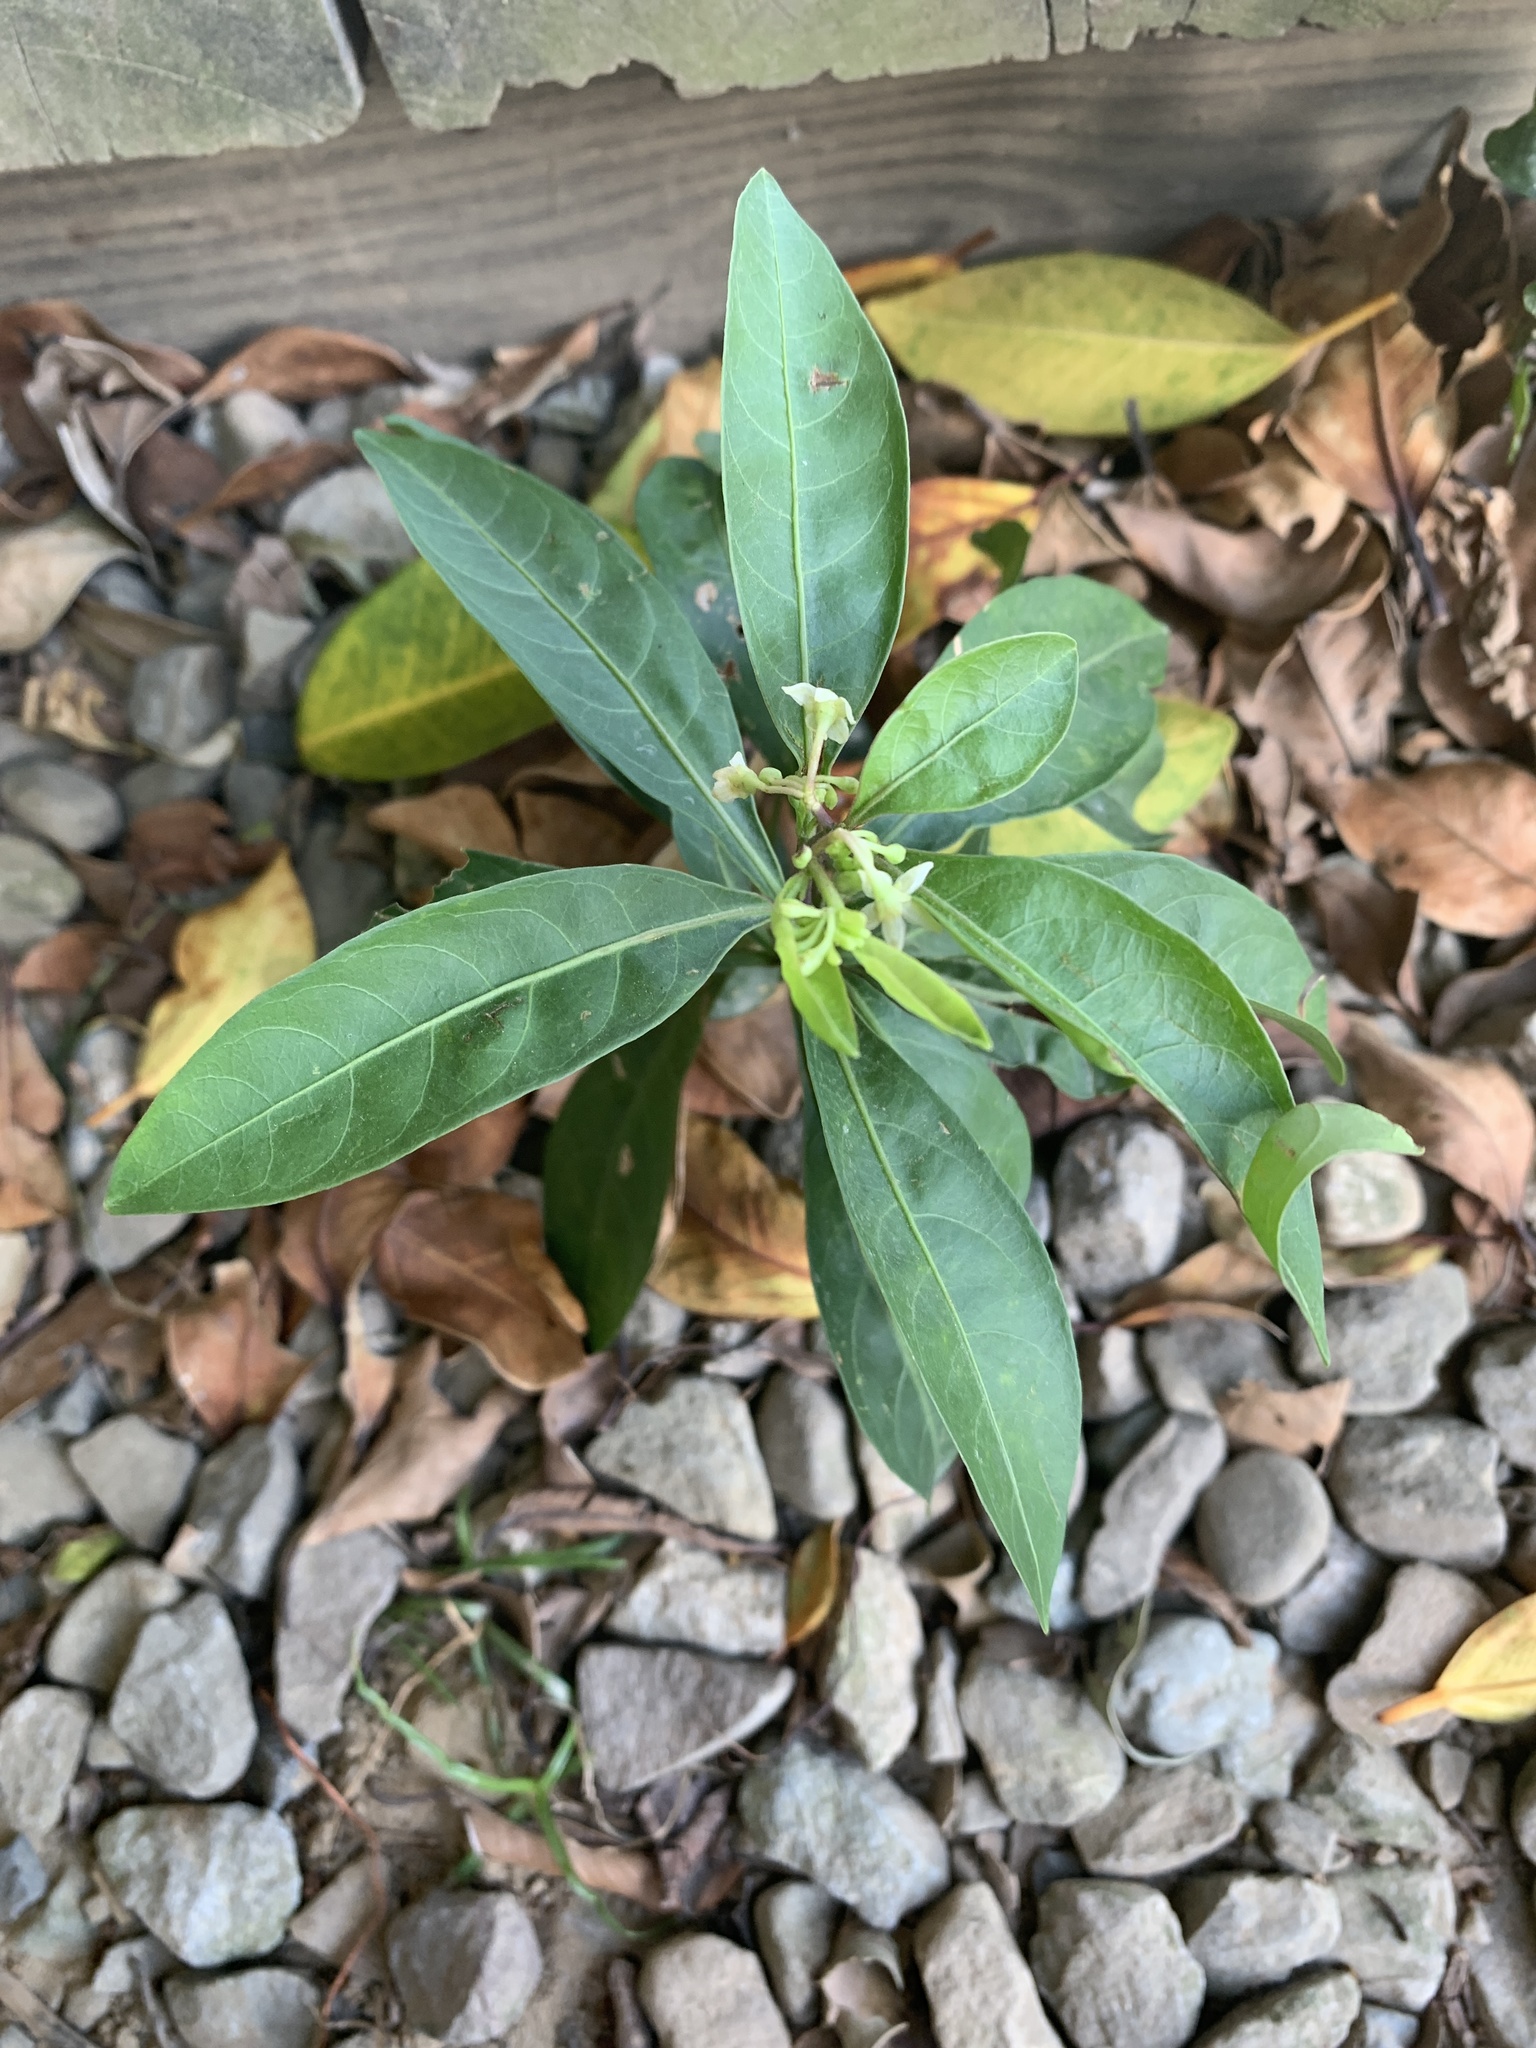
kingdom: Plantae
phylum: Tracheophyta
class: Magnoliopsida
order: Solanales
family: Solanaceae
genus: Solanum
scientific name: Solanum diphyllum
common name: Twoleaf nightshade
